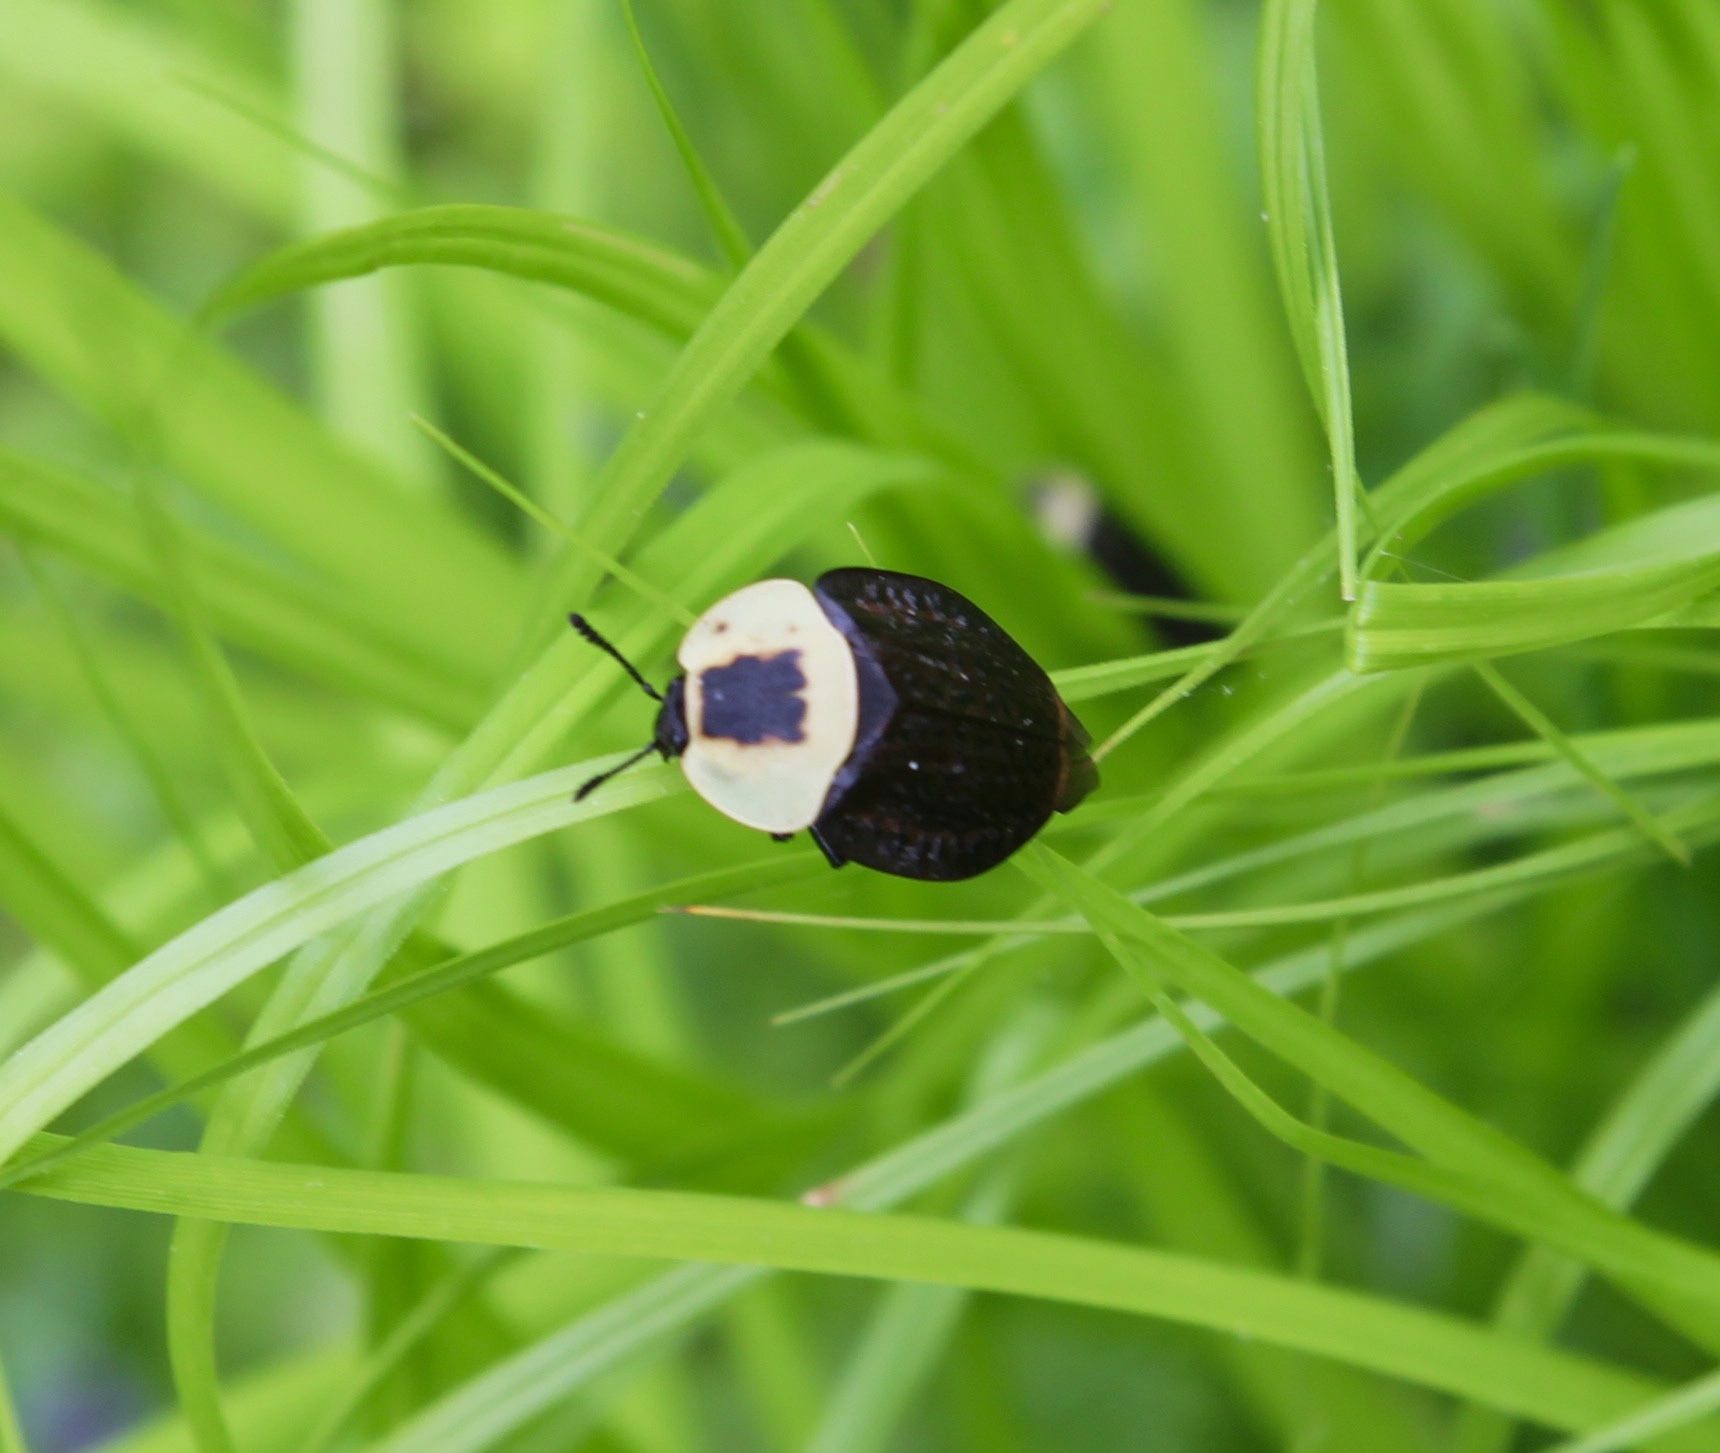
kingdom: Animalia
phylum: Arthropoda
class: Insecta
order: Coleoptera
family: Staphylinidae
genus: Necrophila
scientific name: Necrophila americana
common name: American carrion beetle
